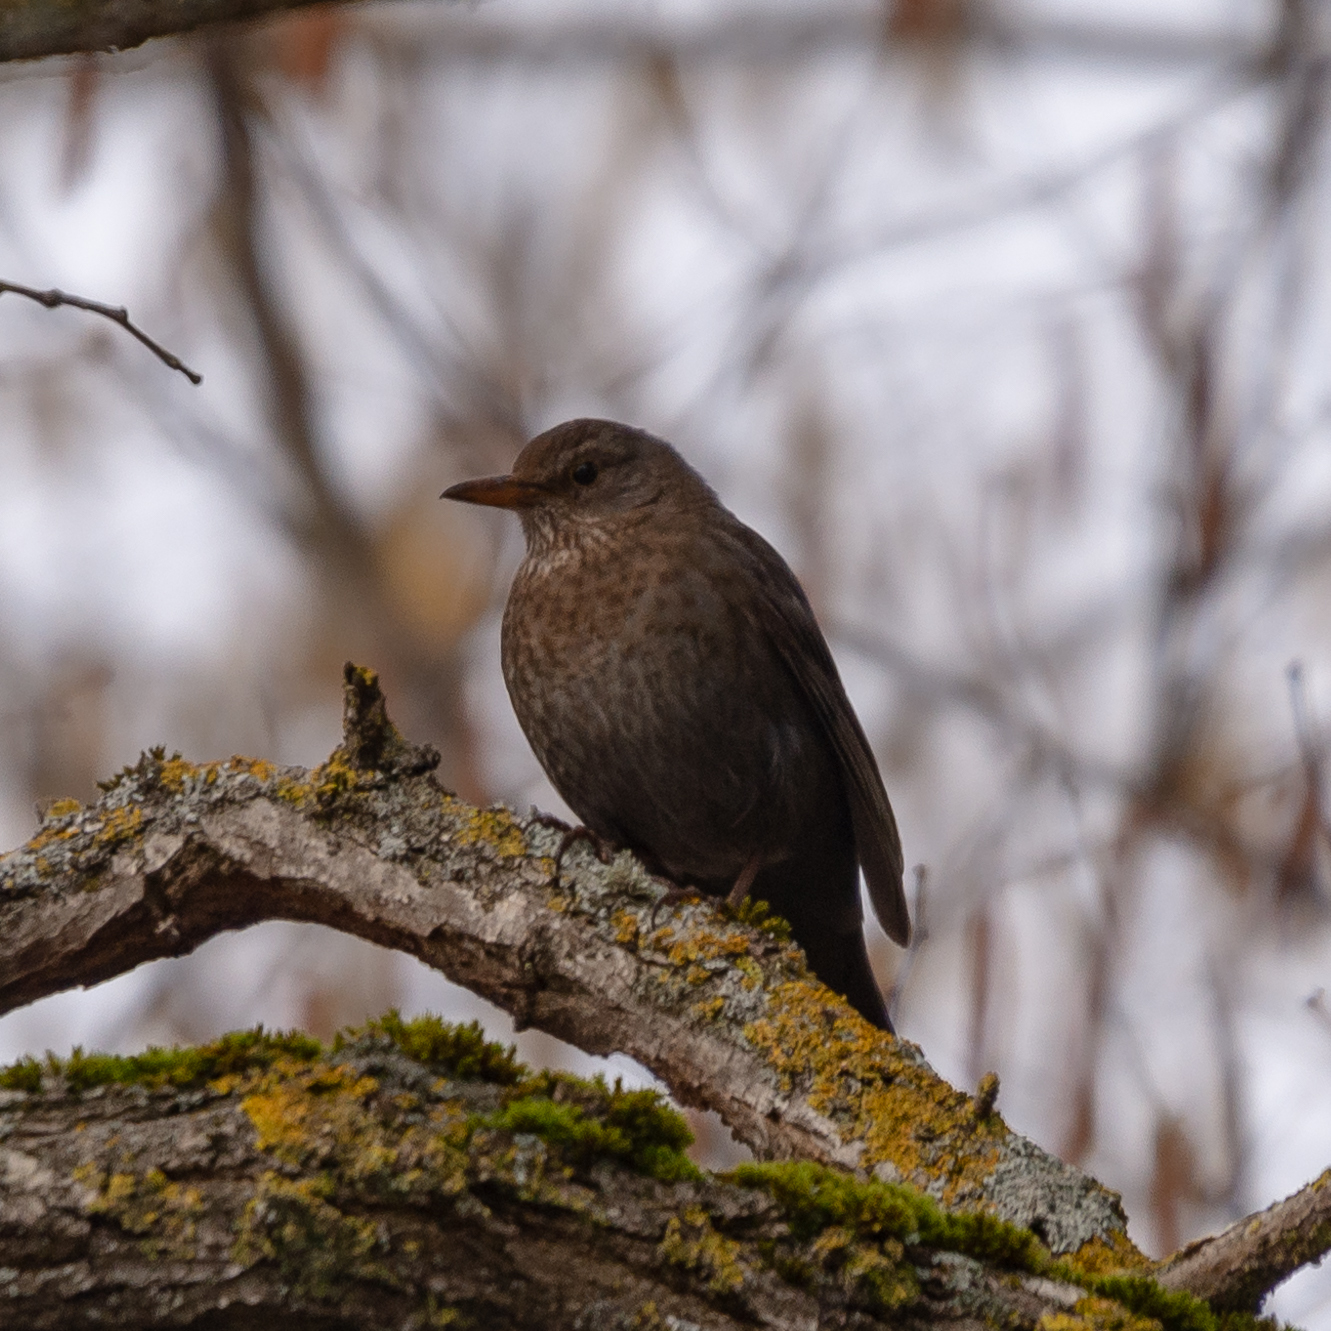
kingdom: Animalia
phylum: Chordata
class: Aves
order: Passeriformes
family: Turdidae
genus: Turdus
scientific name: Turdus merula
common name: Common blackbird
